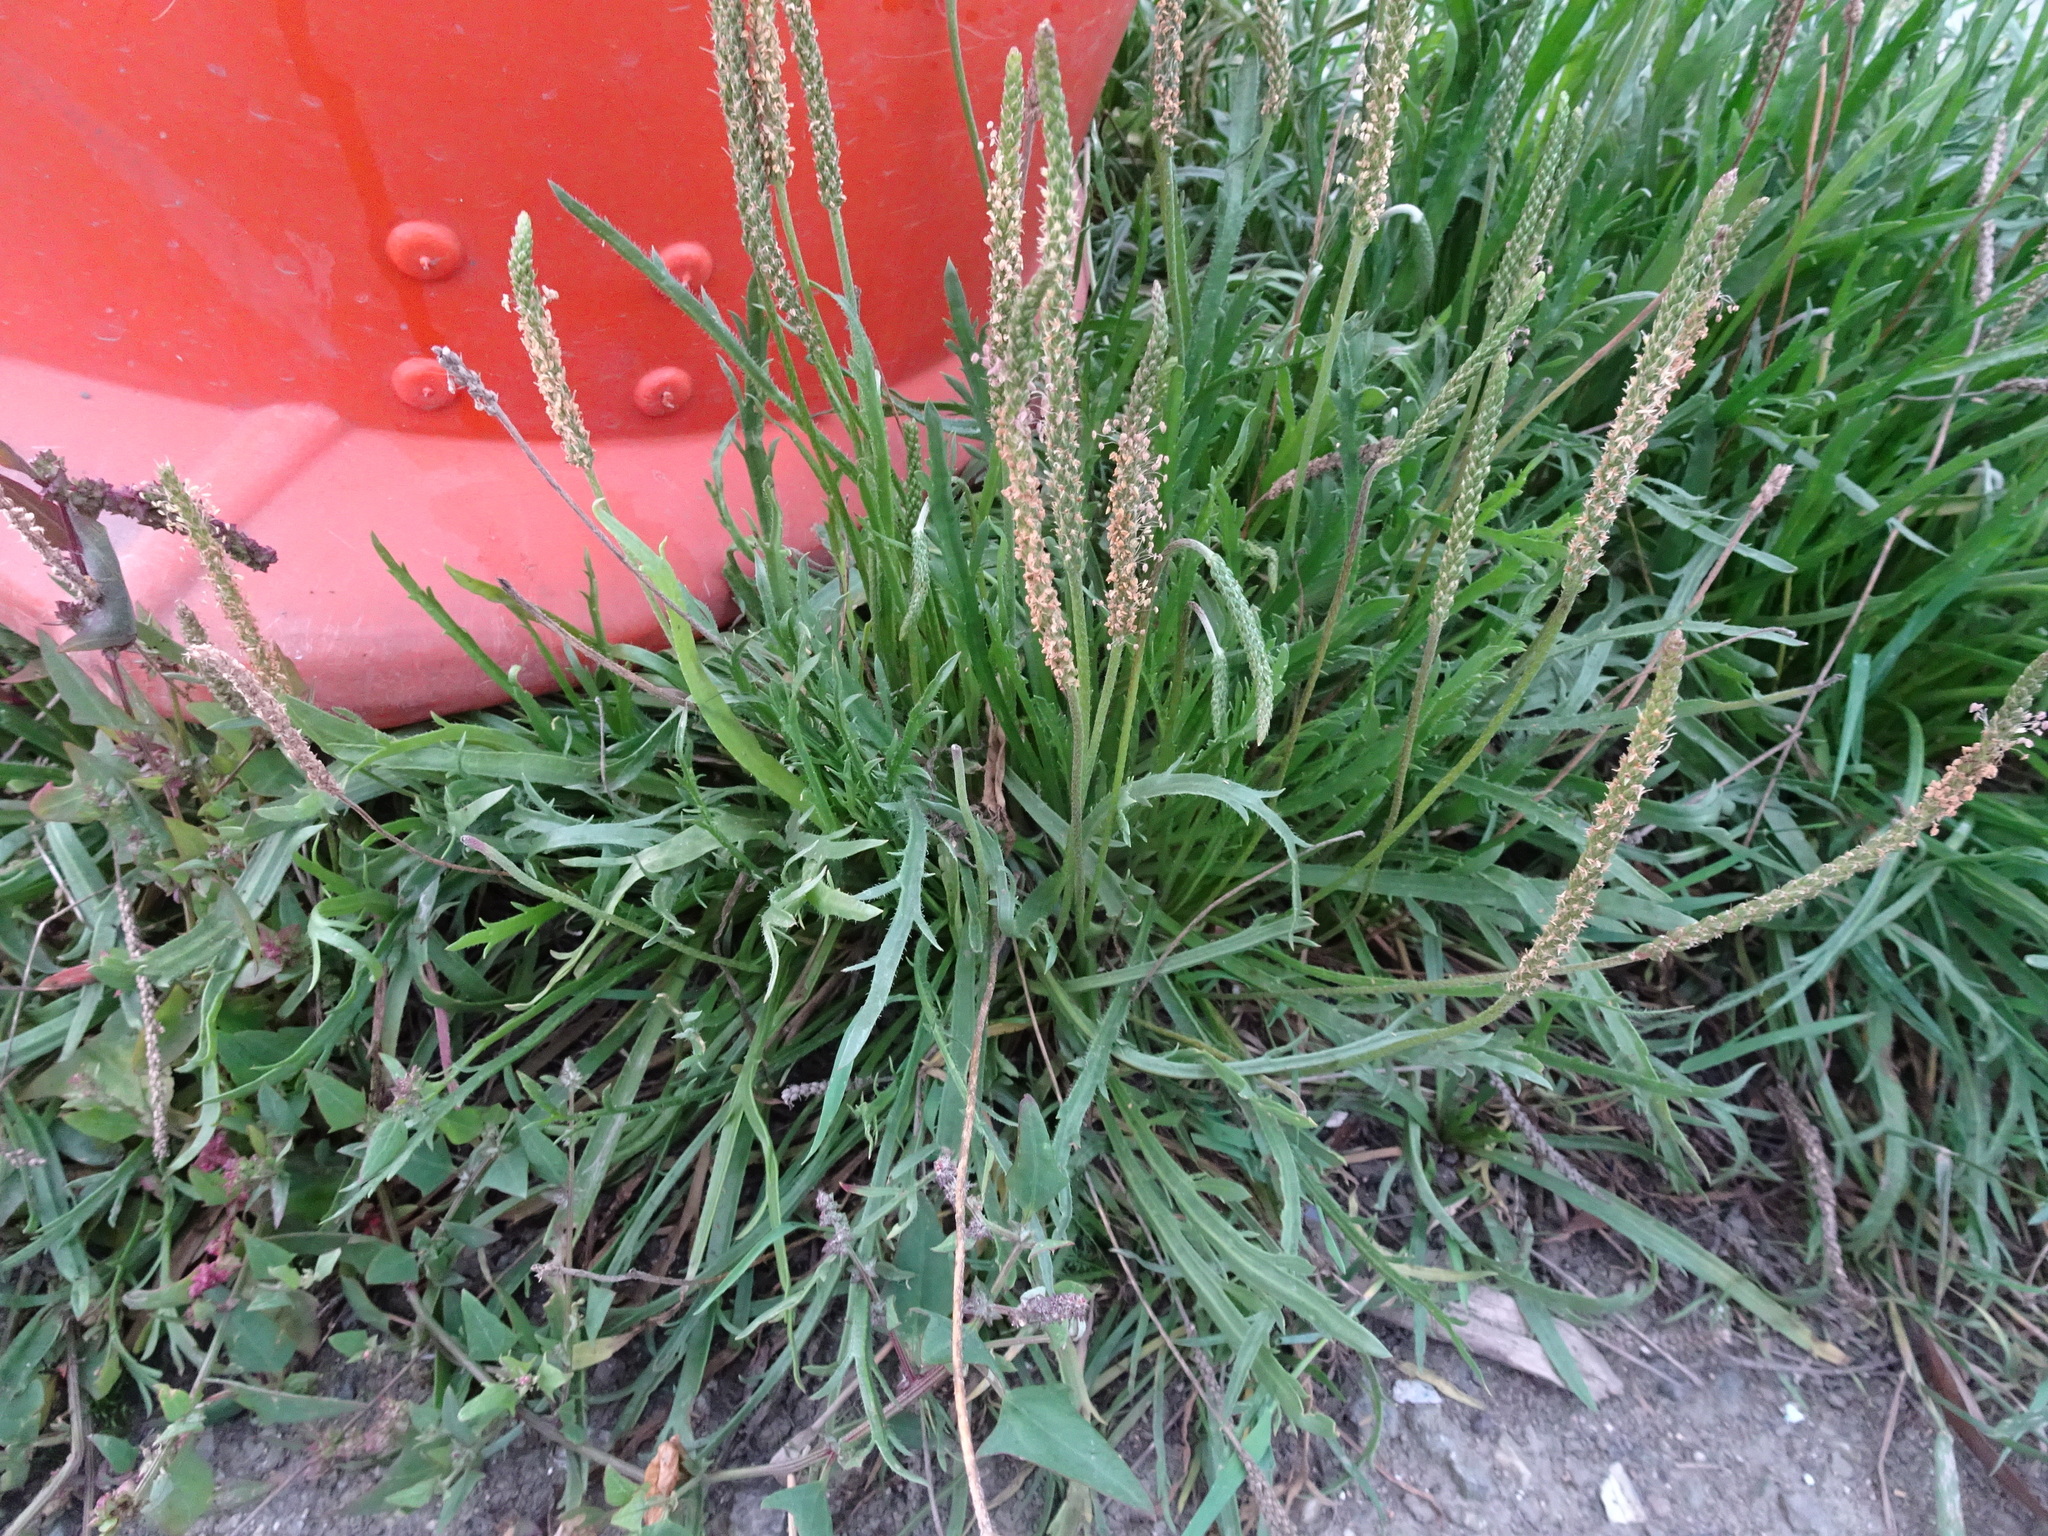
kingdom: Plantae
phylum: Tracheophyta
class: Magnoliopsida
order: Lamiales
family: Plantaginaceae
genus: Plantago
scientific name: Plantago coronopus
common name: Buck's-horn plantain
